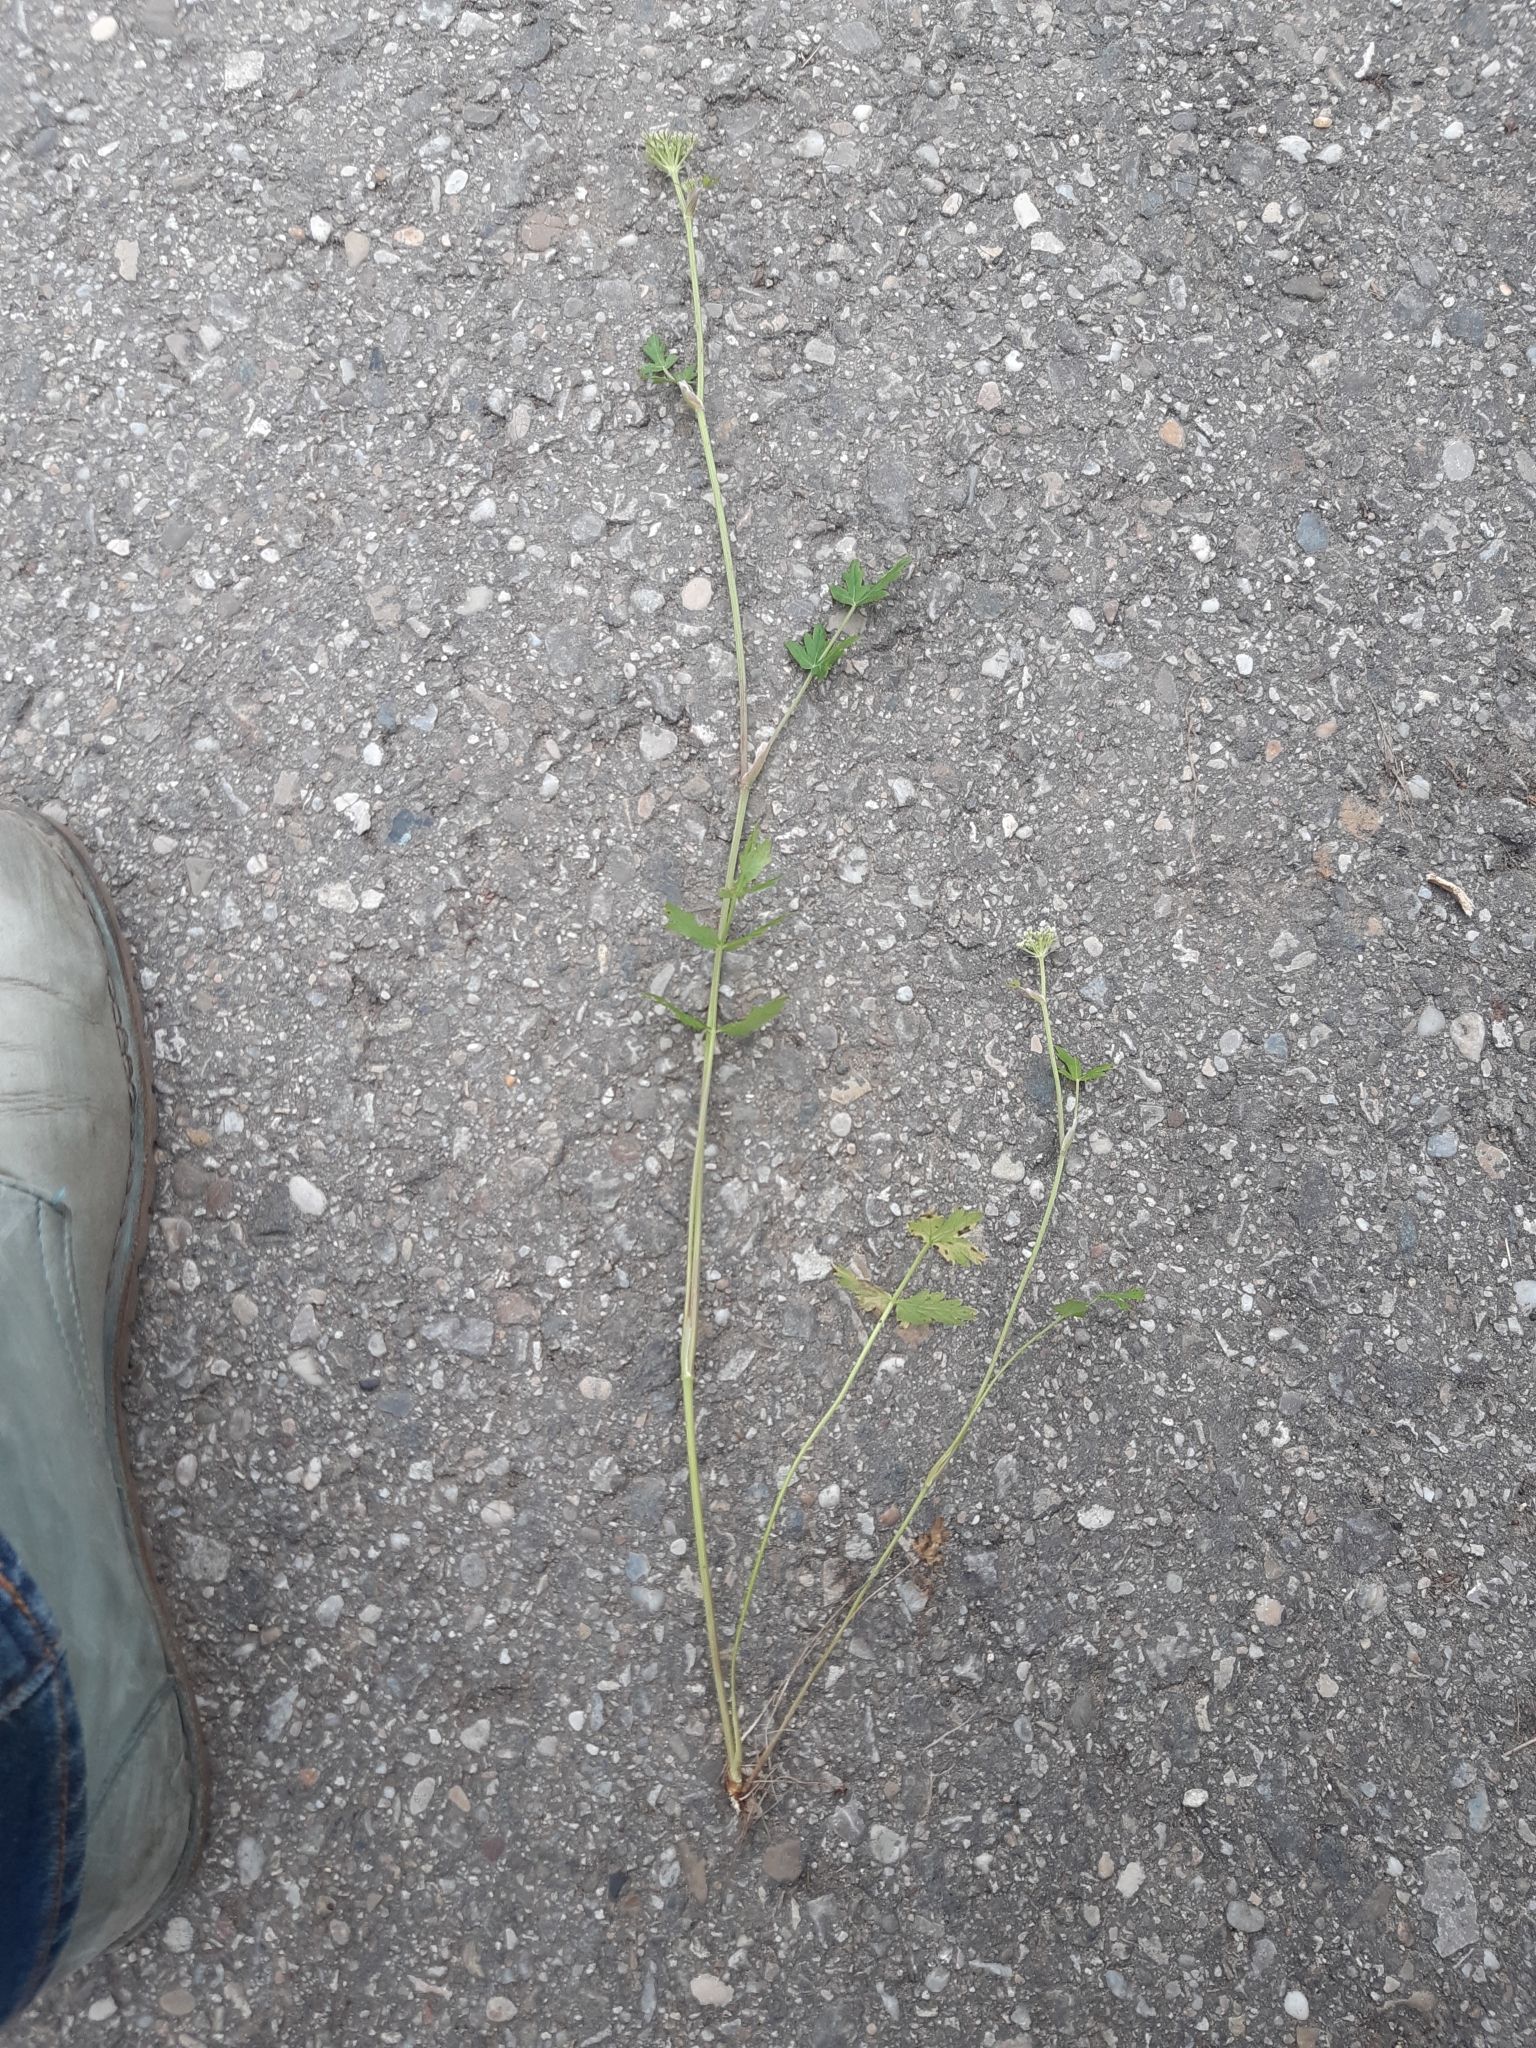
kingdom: Plantae
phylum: Tracheophyta
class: Magnoliopsida
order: Apiales
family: Apiaceae
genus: Seseli
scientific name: Seseli libanotis
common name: Mooncarrot
